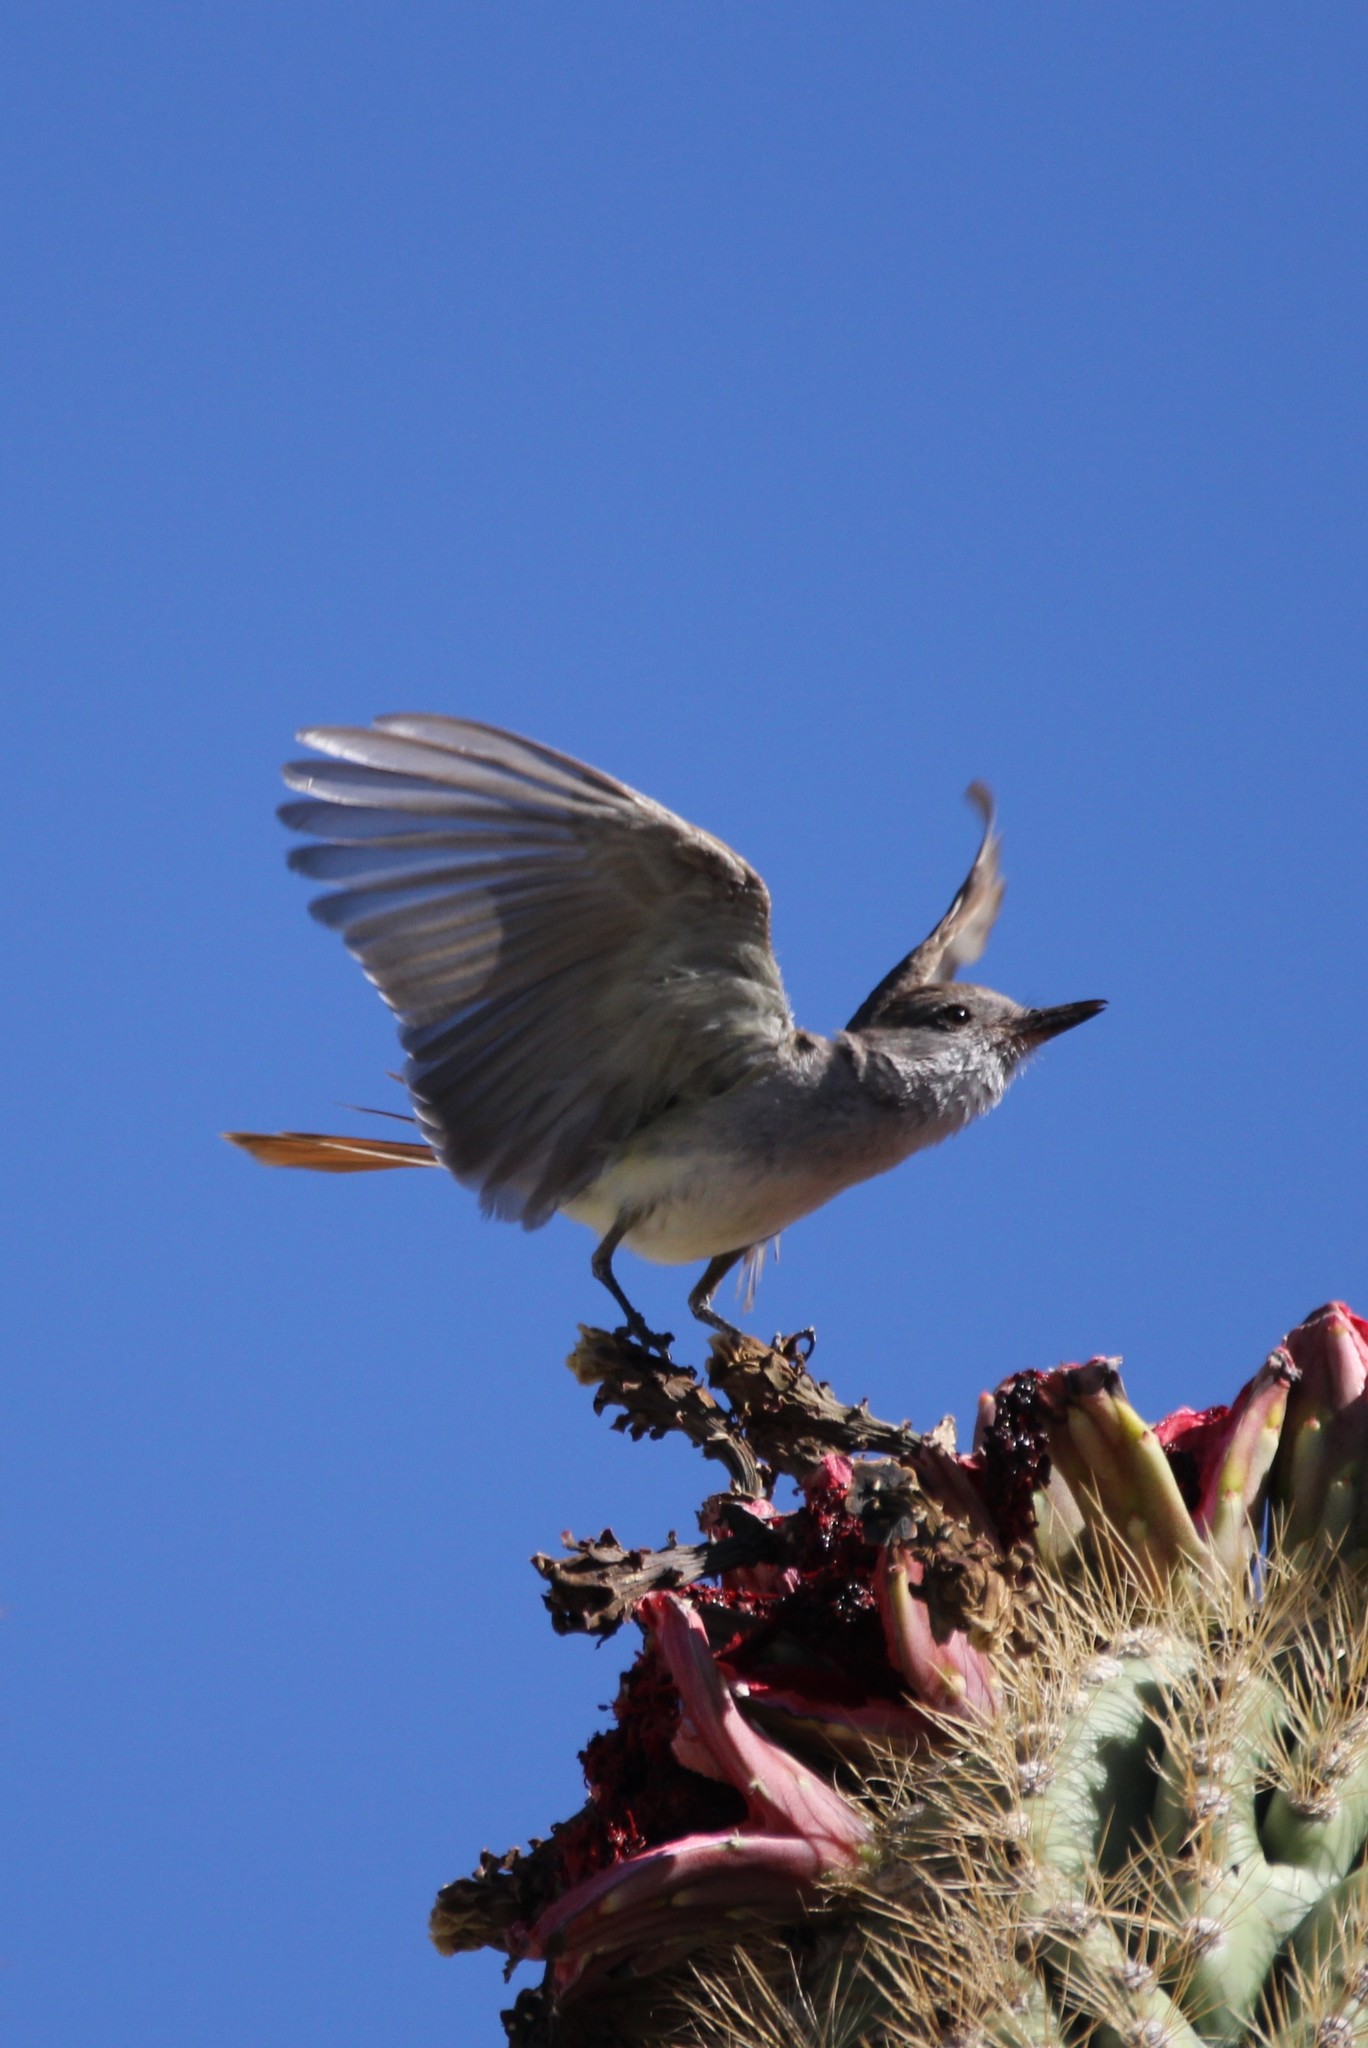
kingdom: Animalia
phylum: Chordata
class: Aves
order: Passeriformes
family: Tyrannidae
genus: Myiarchus
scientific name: Myiarchus
